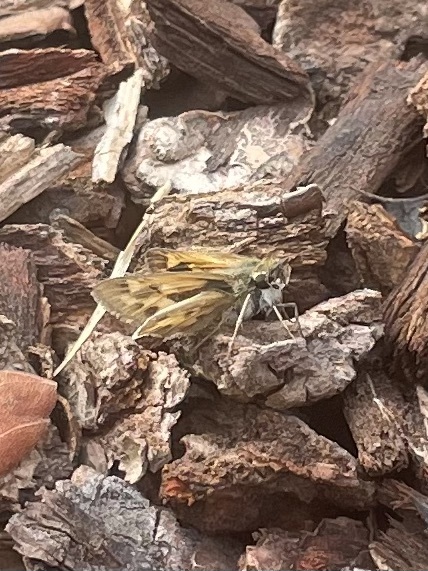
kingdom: Animalia
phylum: Arthropoda
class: Insecta
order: Lepidoptera
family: Hesperiidae
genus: Hylephila
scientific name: Hylephila phyleus
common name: Fiery skipper
